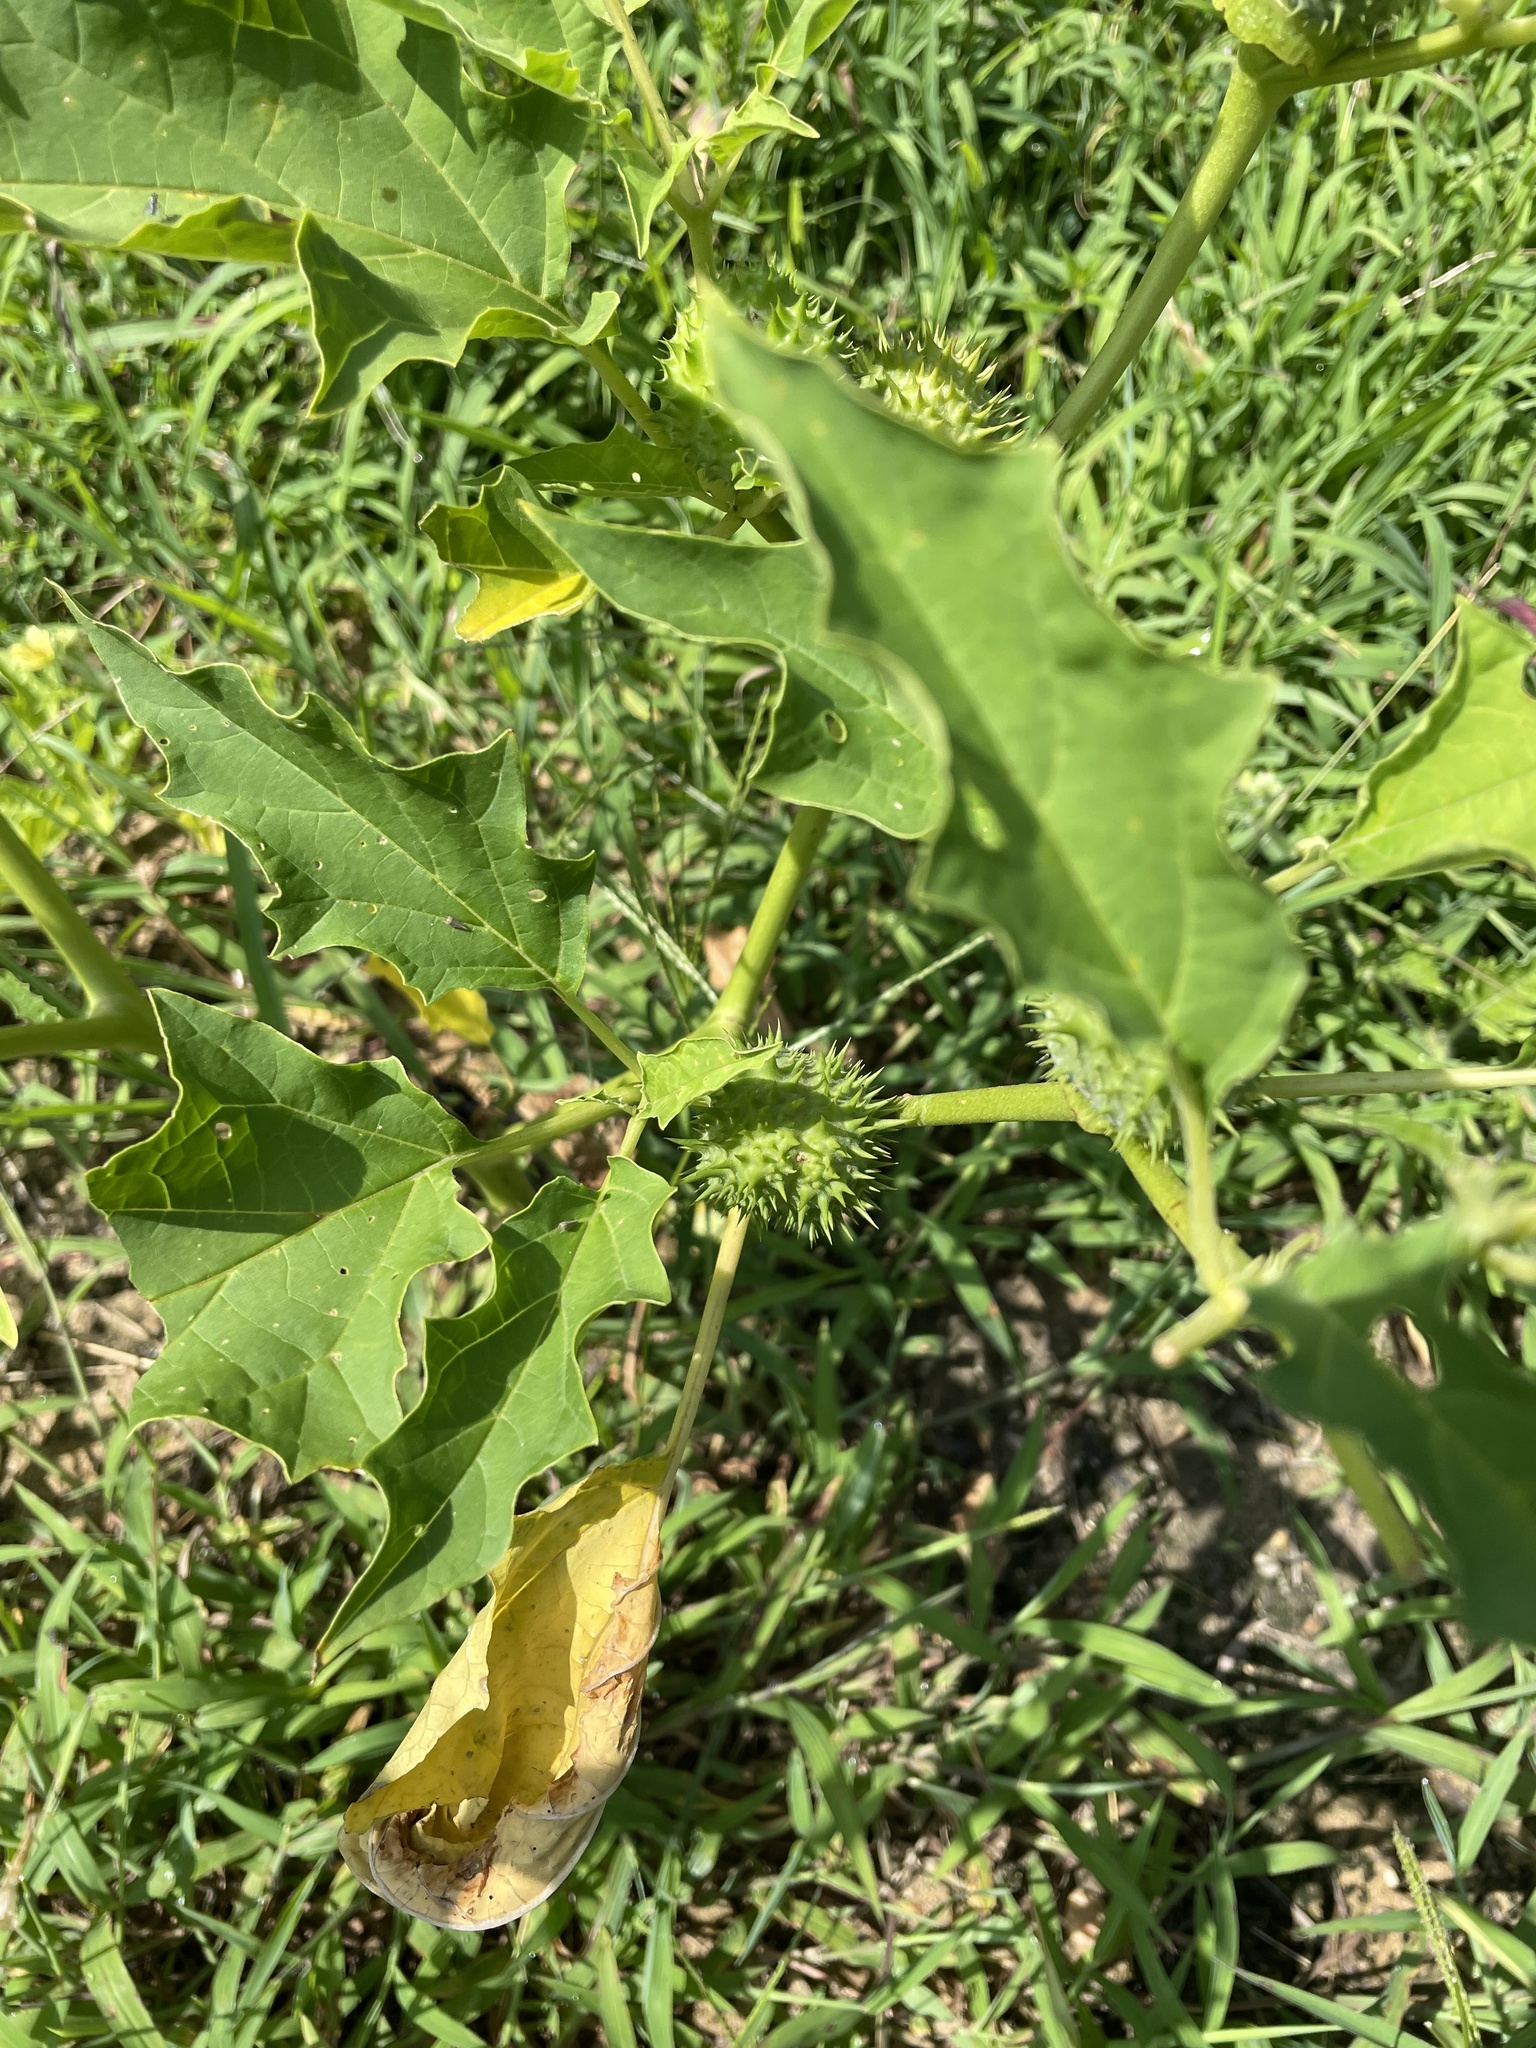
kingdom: Plantae
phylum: Tracheophyta
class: Magnoliopsida
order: Solanales
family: Solanaceae
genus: Datura
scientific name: Datura stramonium
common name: Thorn-apple
